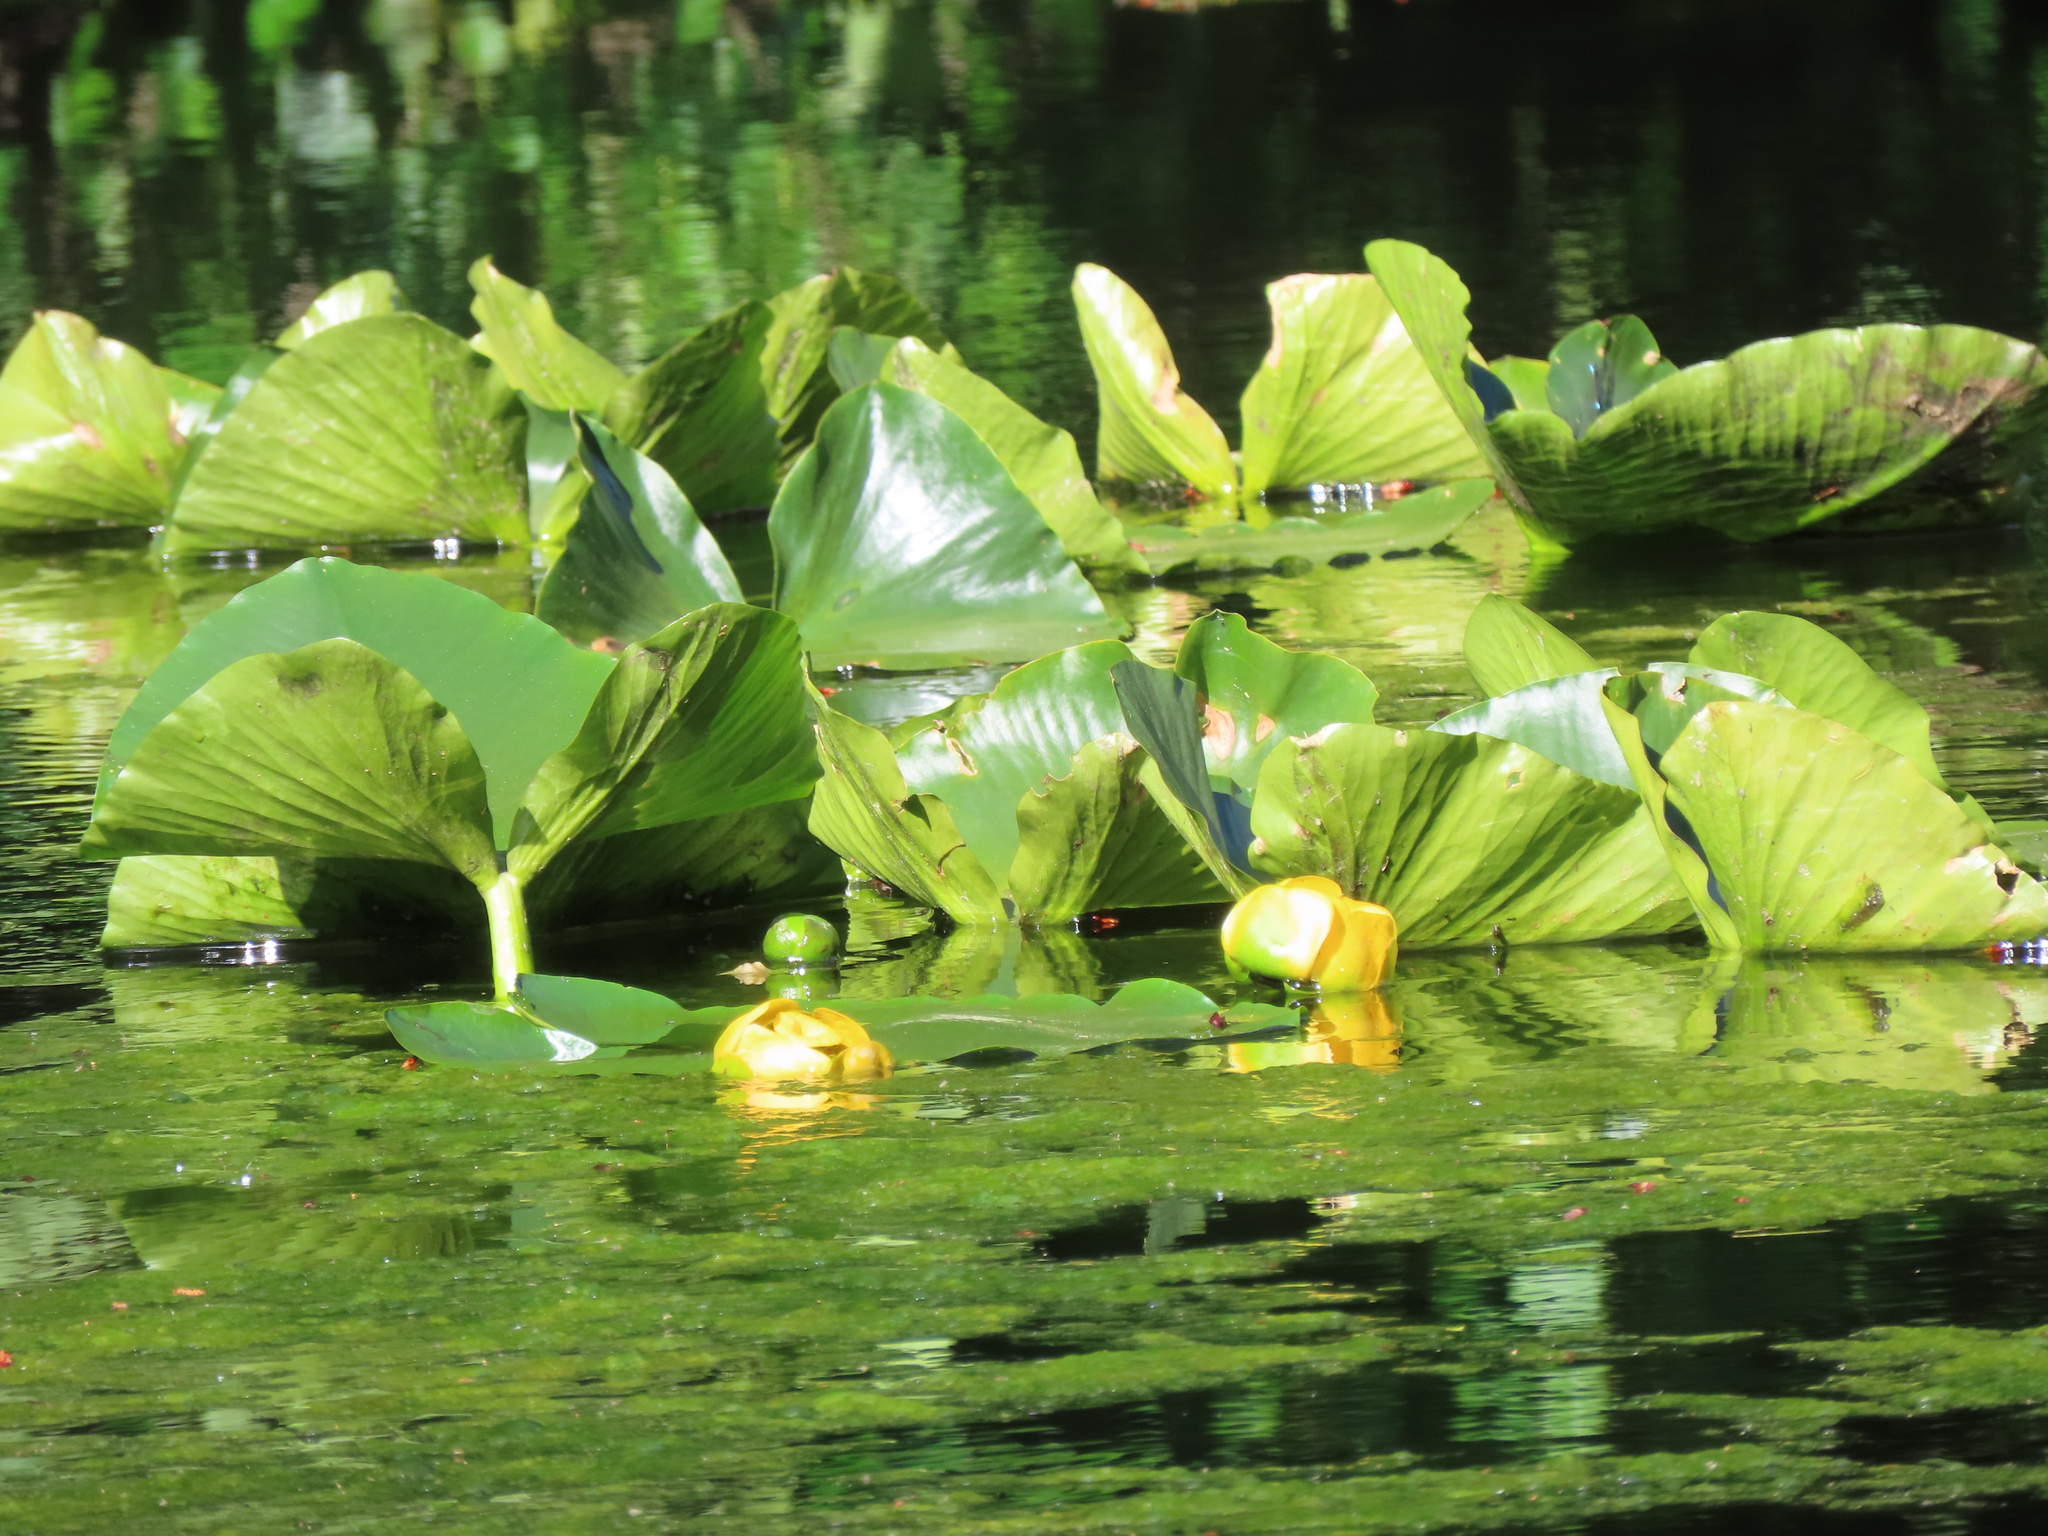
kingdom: Plantae
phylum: Tracheophyta
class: Magnoliopsida
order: Nymphaeales
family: Nymphaeaceae
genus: Nuphar
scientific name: Nuphar polysepala
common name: Rocky mountain cow-lily
